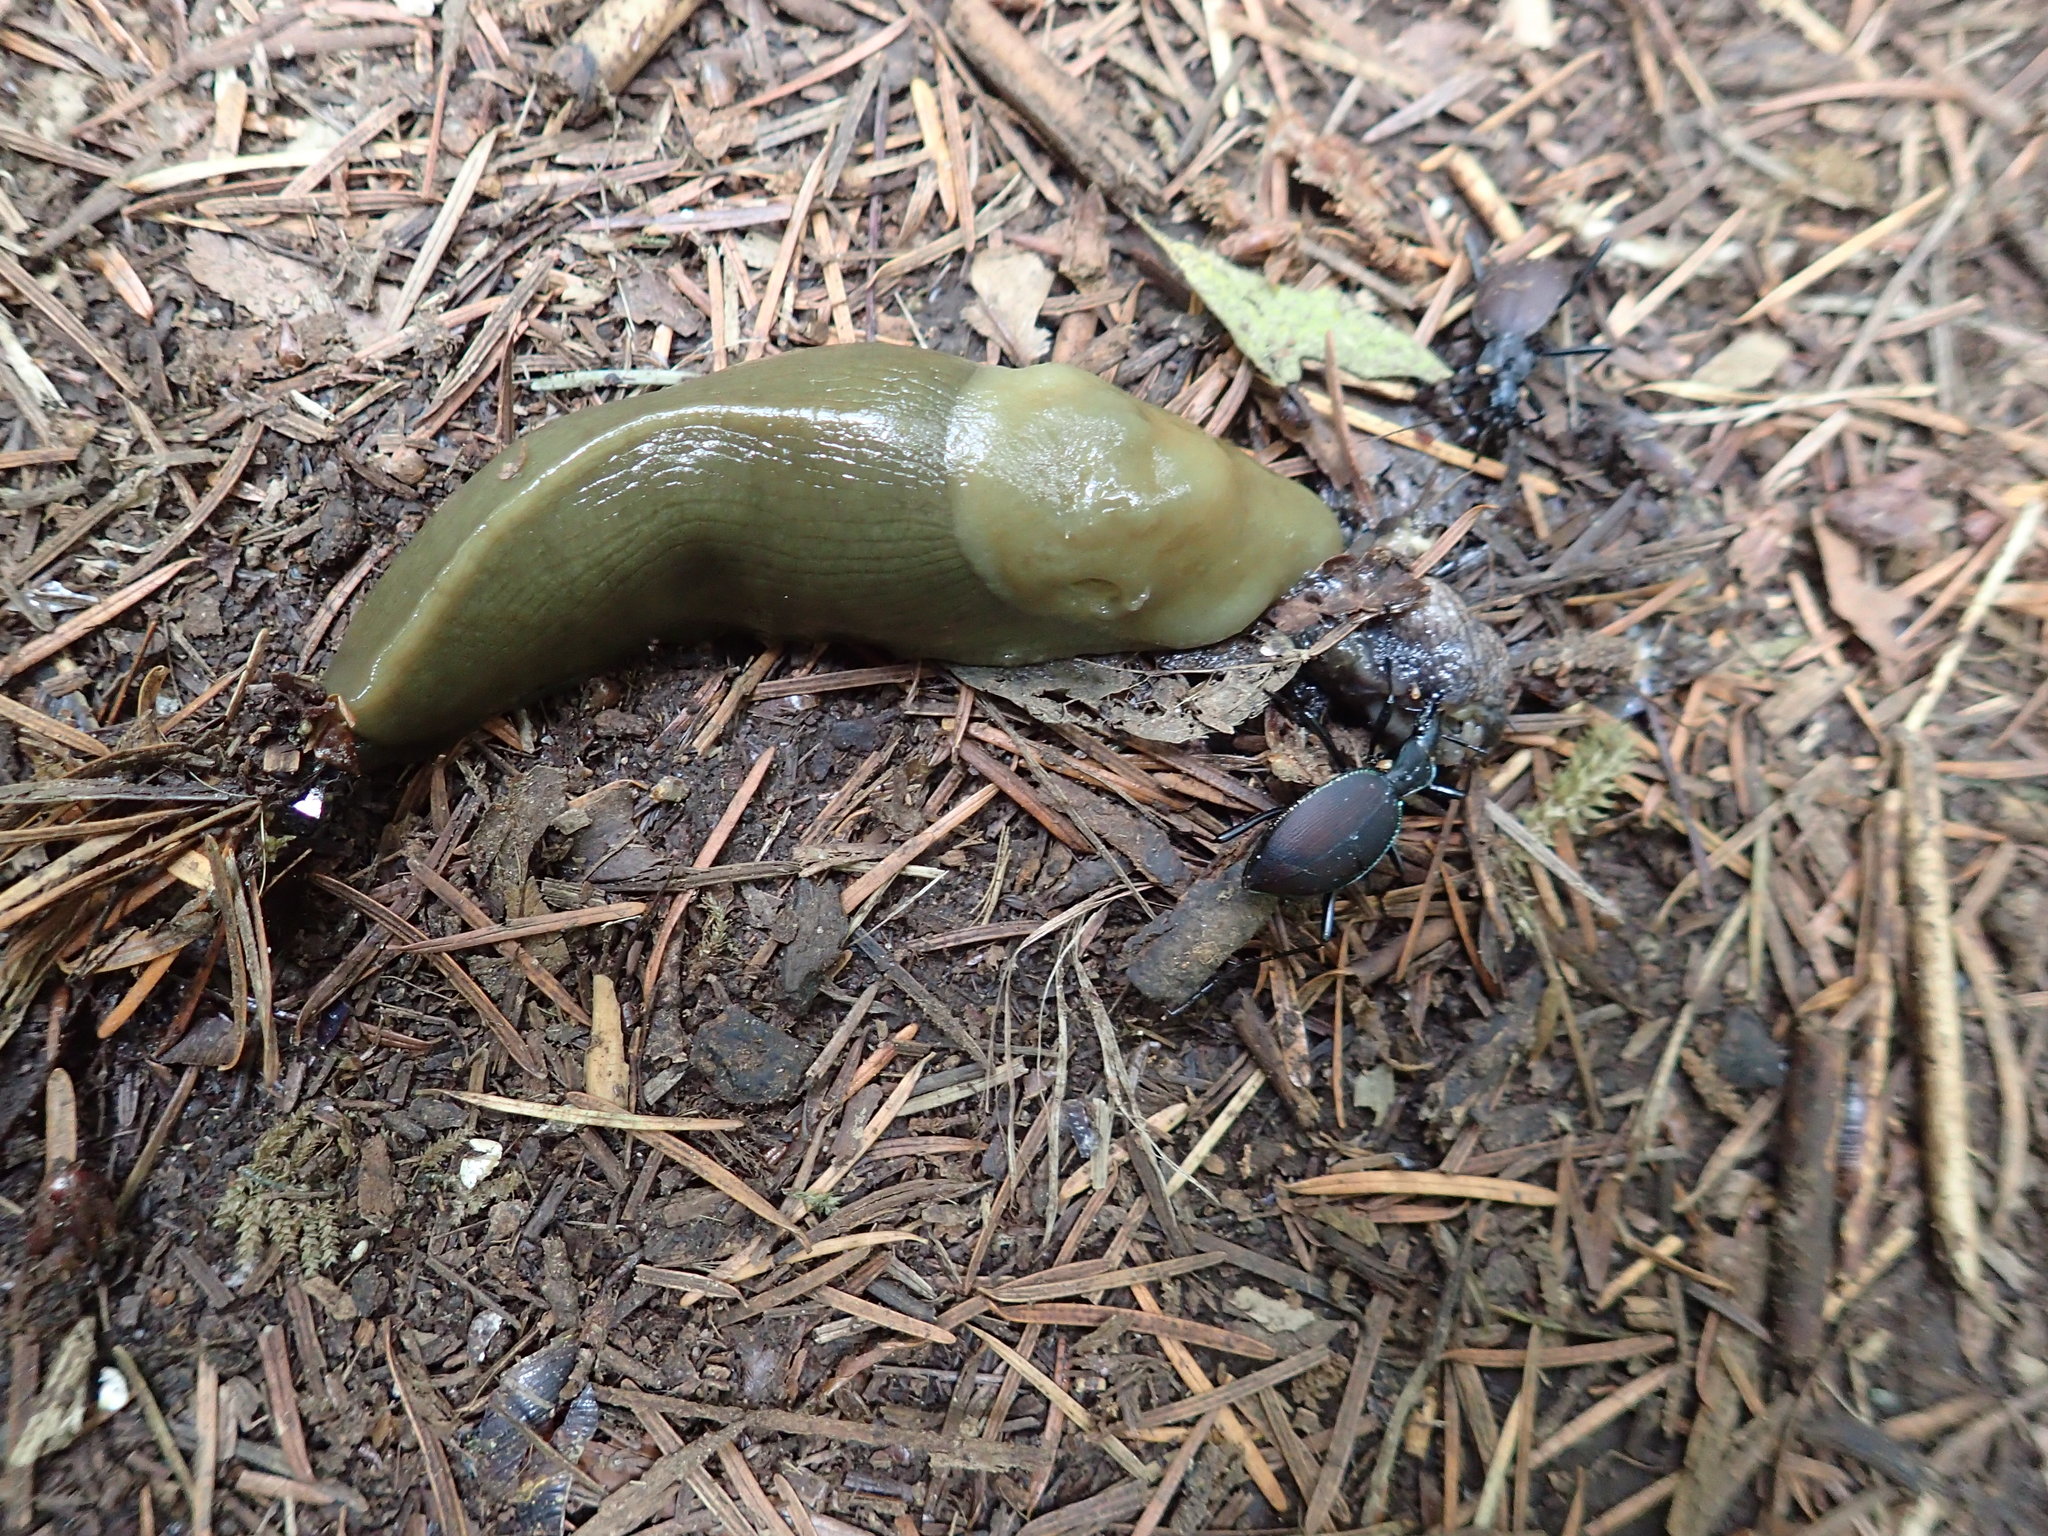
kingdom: Animalia
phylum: Mollusca
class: Gastropoda
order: Stylommatophora
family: Ariolimacidae
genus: Ariolimax
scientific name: Ariolimax columbianus
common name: Pacific banana slug
